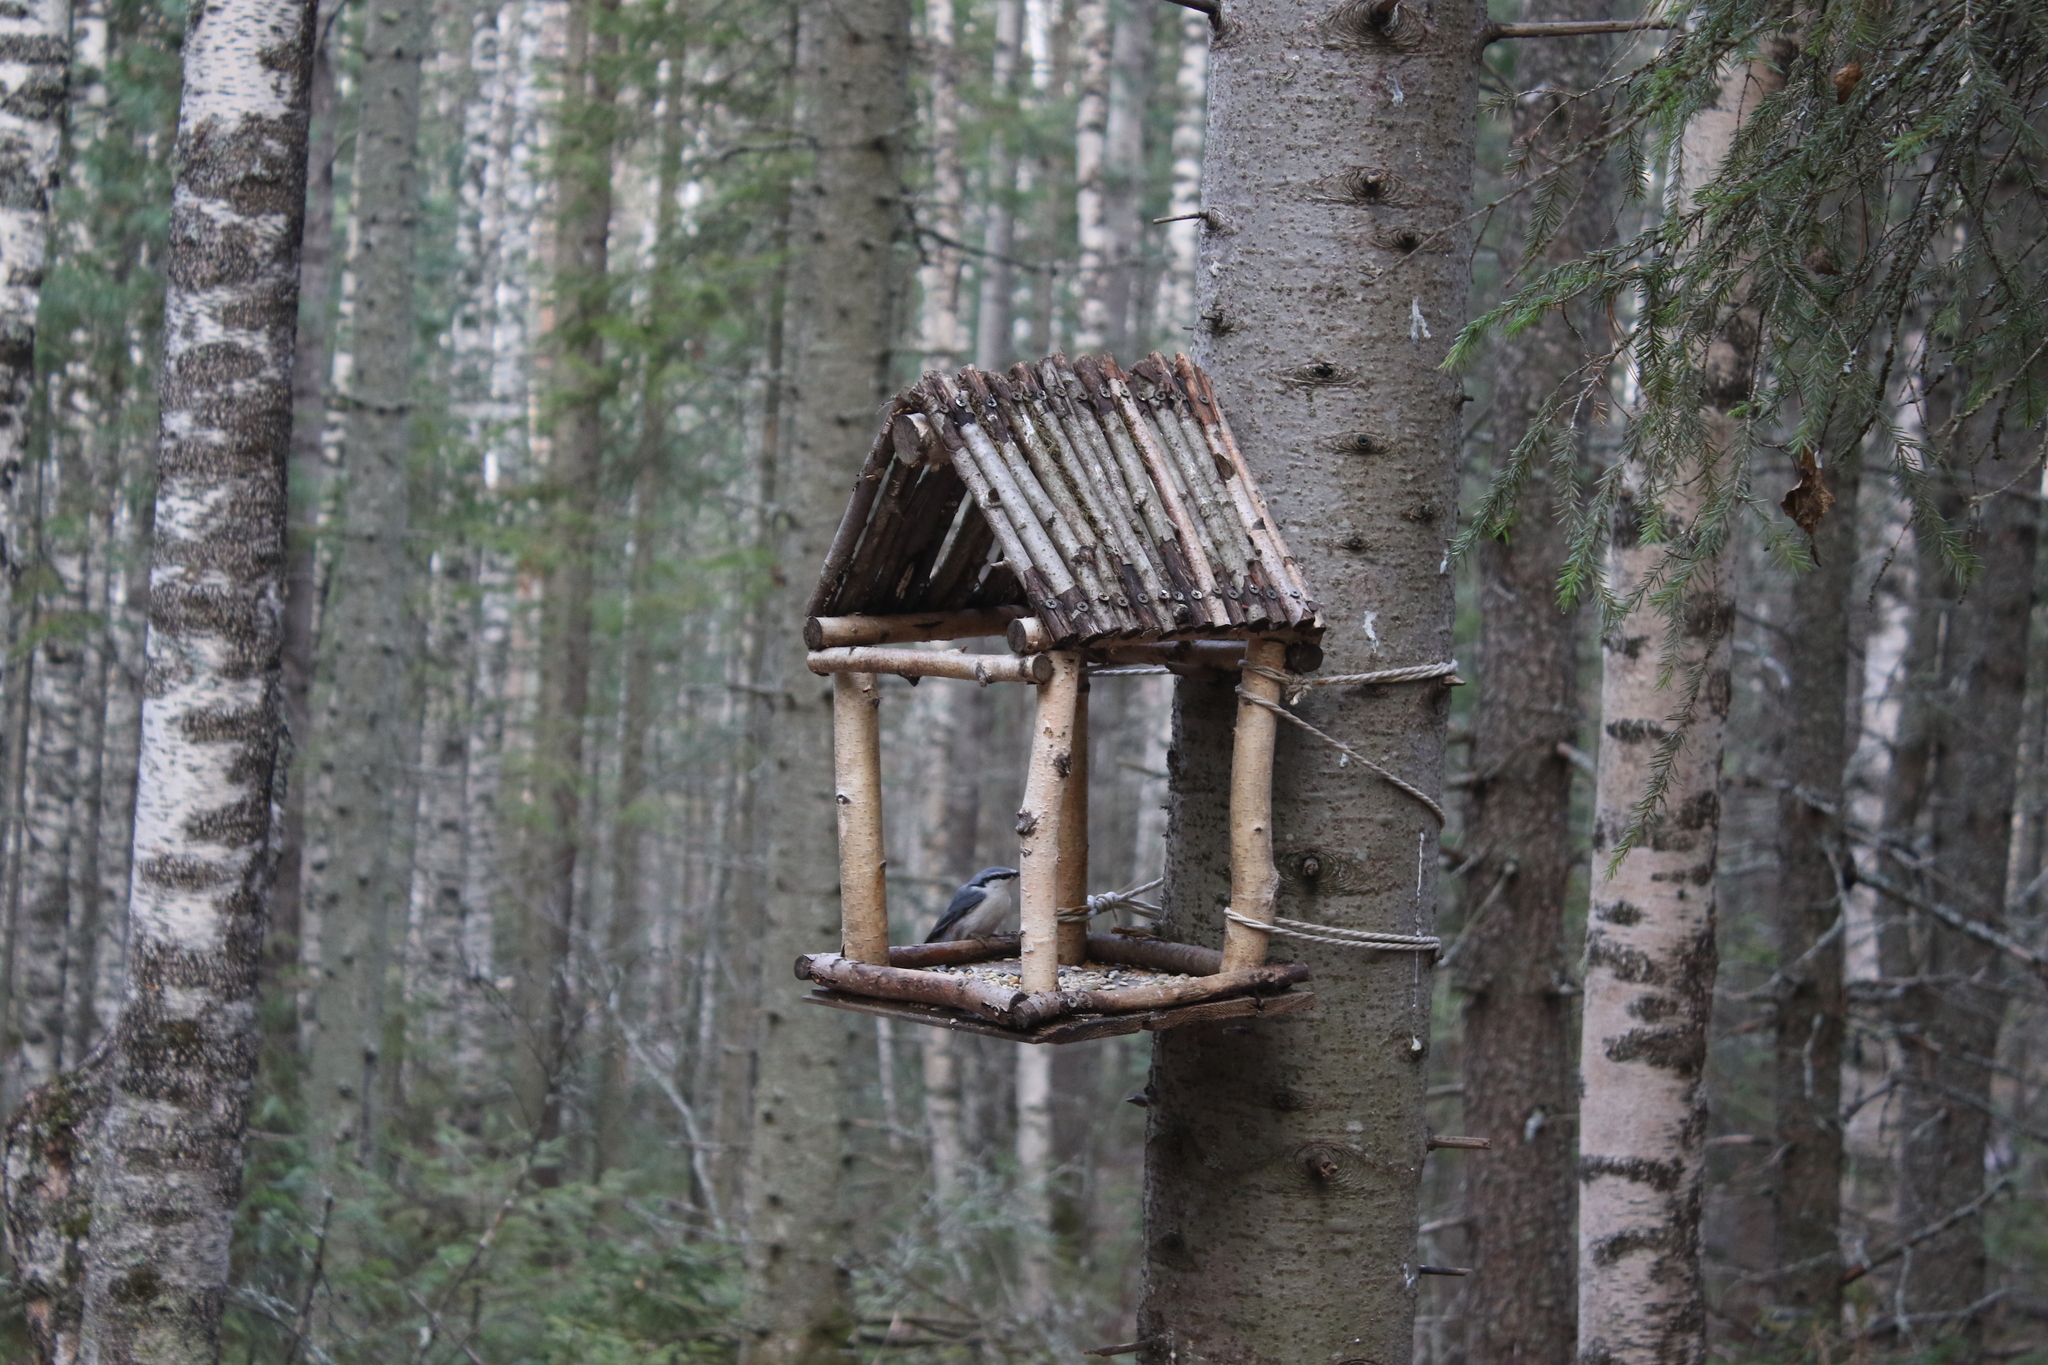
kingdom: Animalia
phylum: Chordata
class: Aves
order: Passeriformes
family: Sittidae
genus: Sitta
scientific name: Sitta europaea
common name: Eurasian nuthatch
